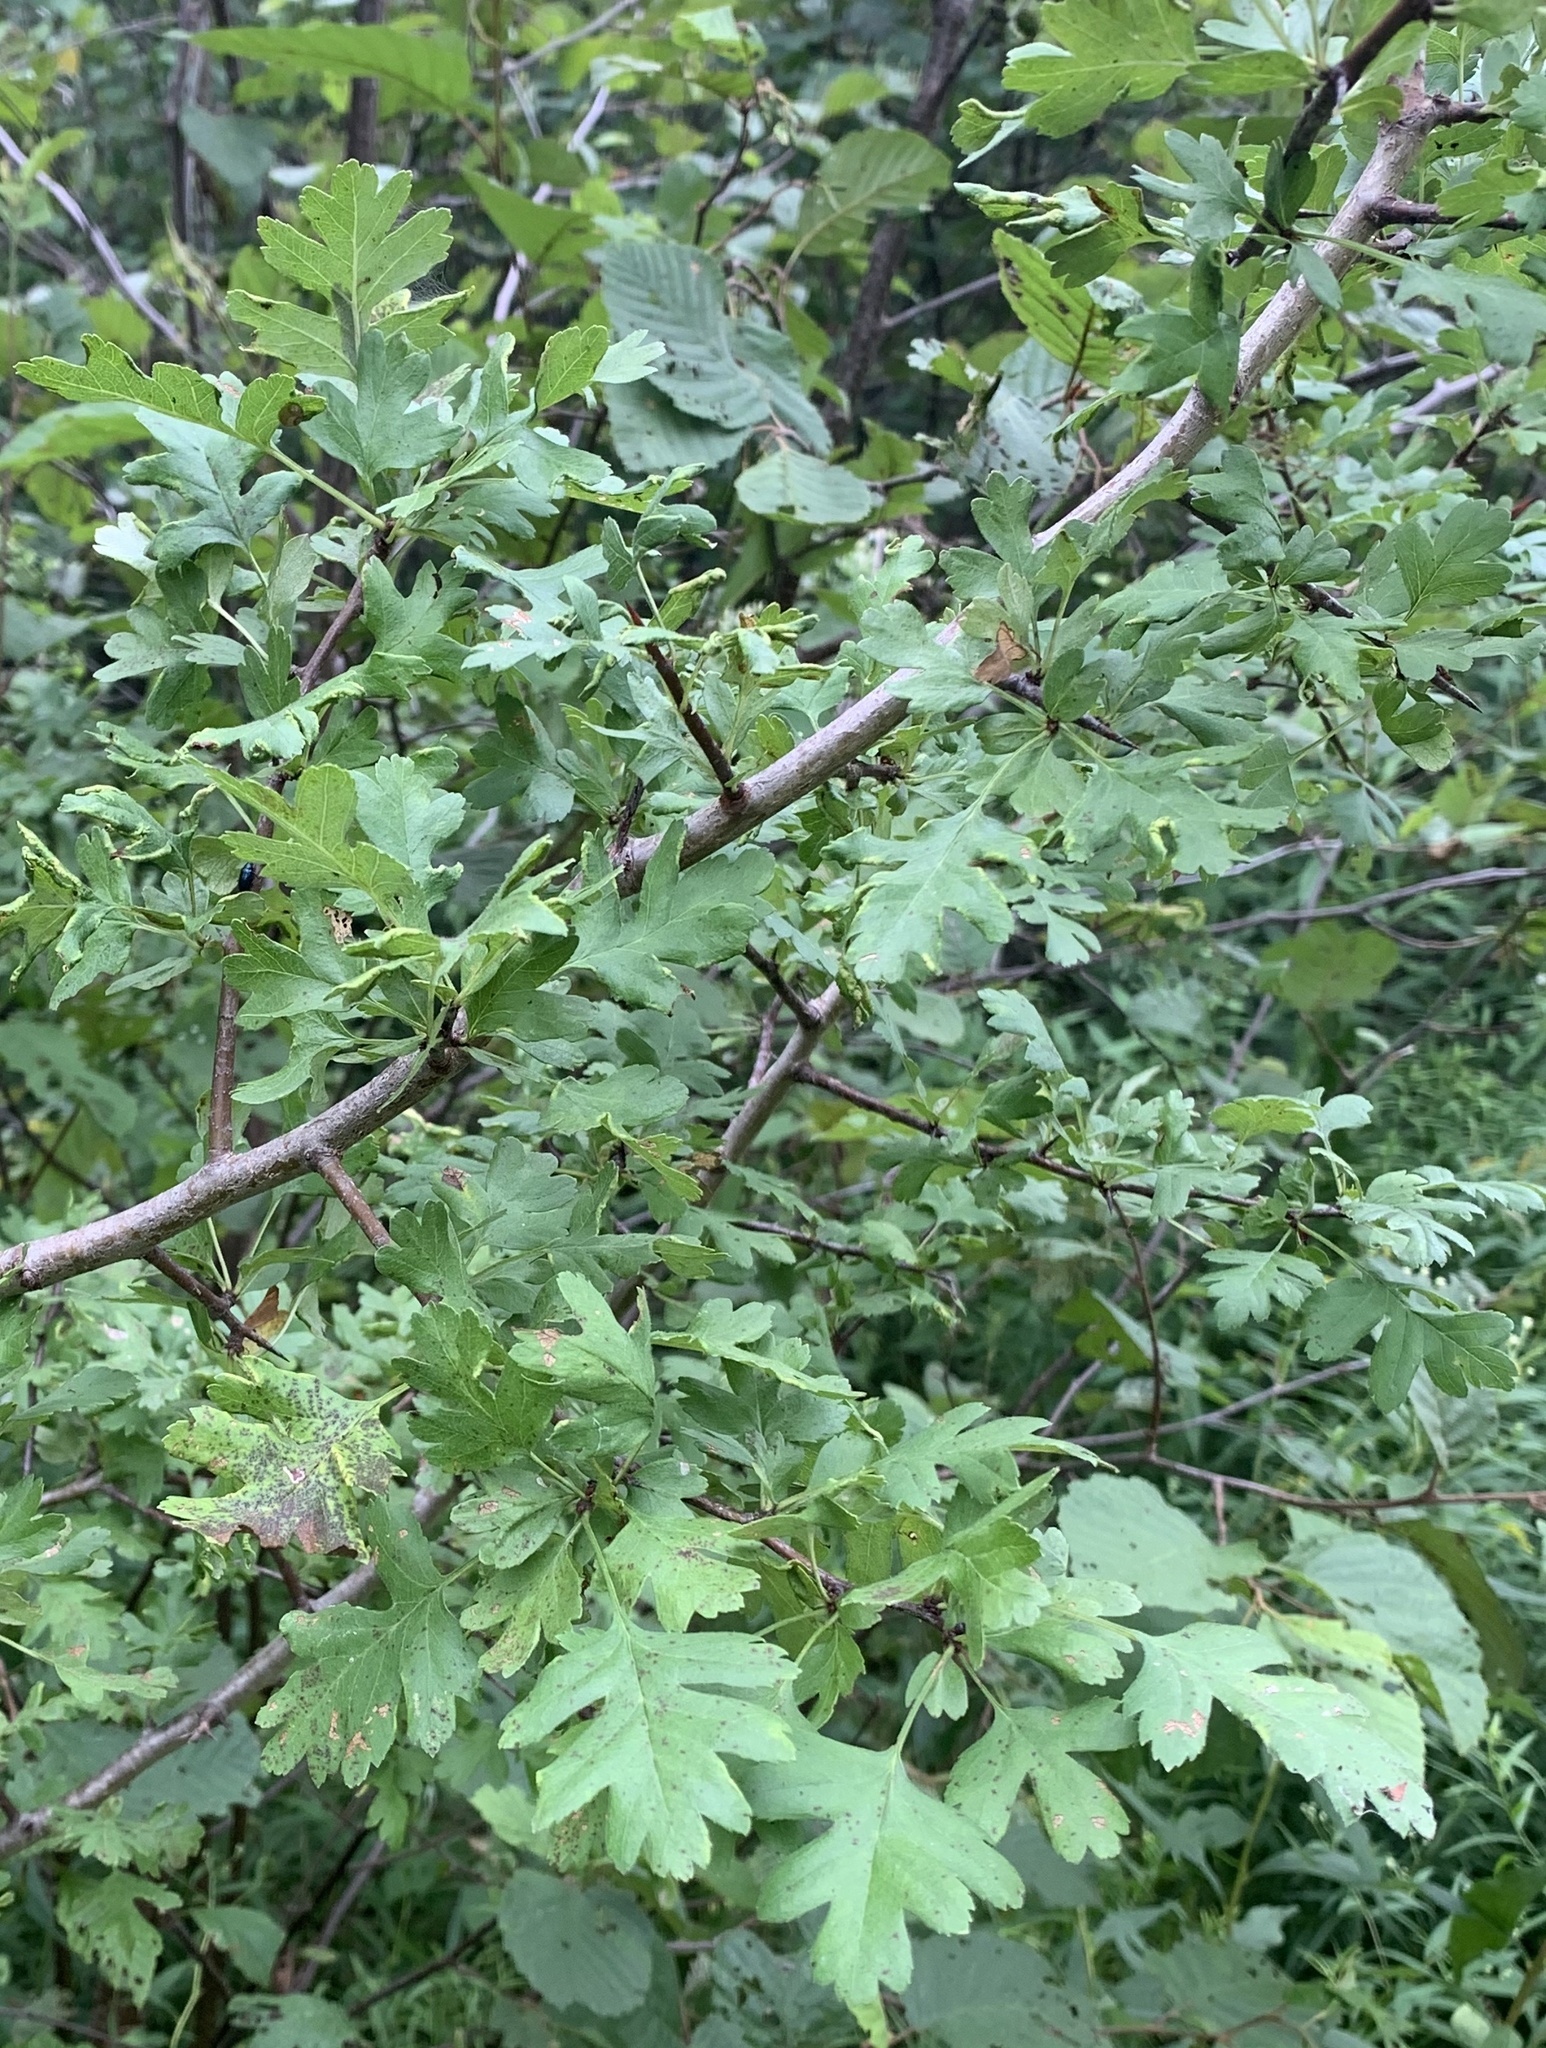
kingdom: Plantae
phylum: Tracheophyta
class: Magnoliopsida
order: Rosales
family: Rosaceae
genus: Crataegus
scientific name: Crataegus monogyna
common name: Hawthorn
